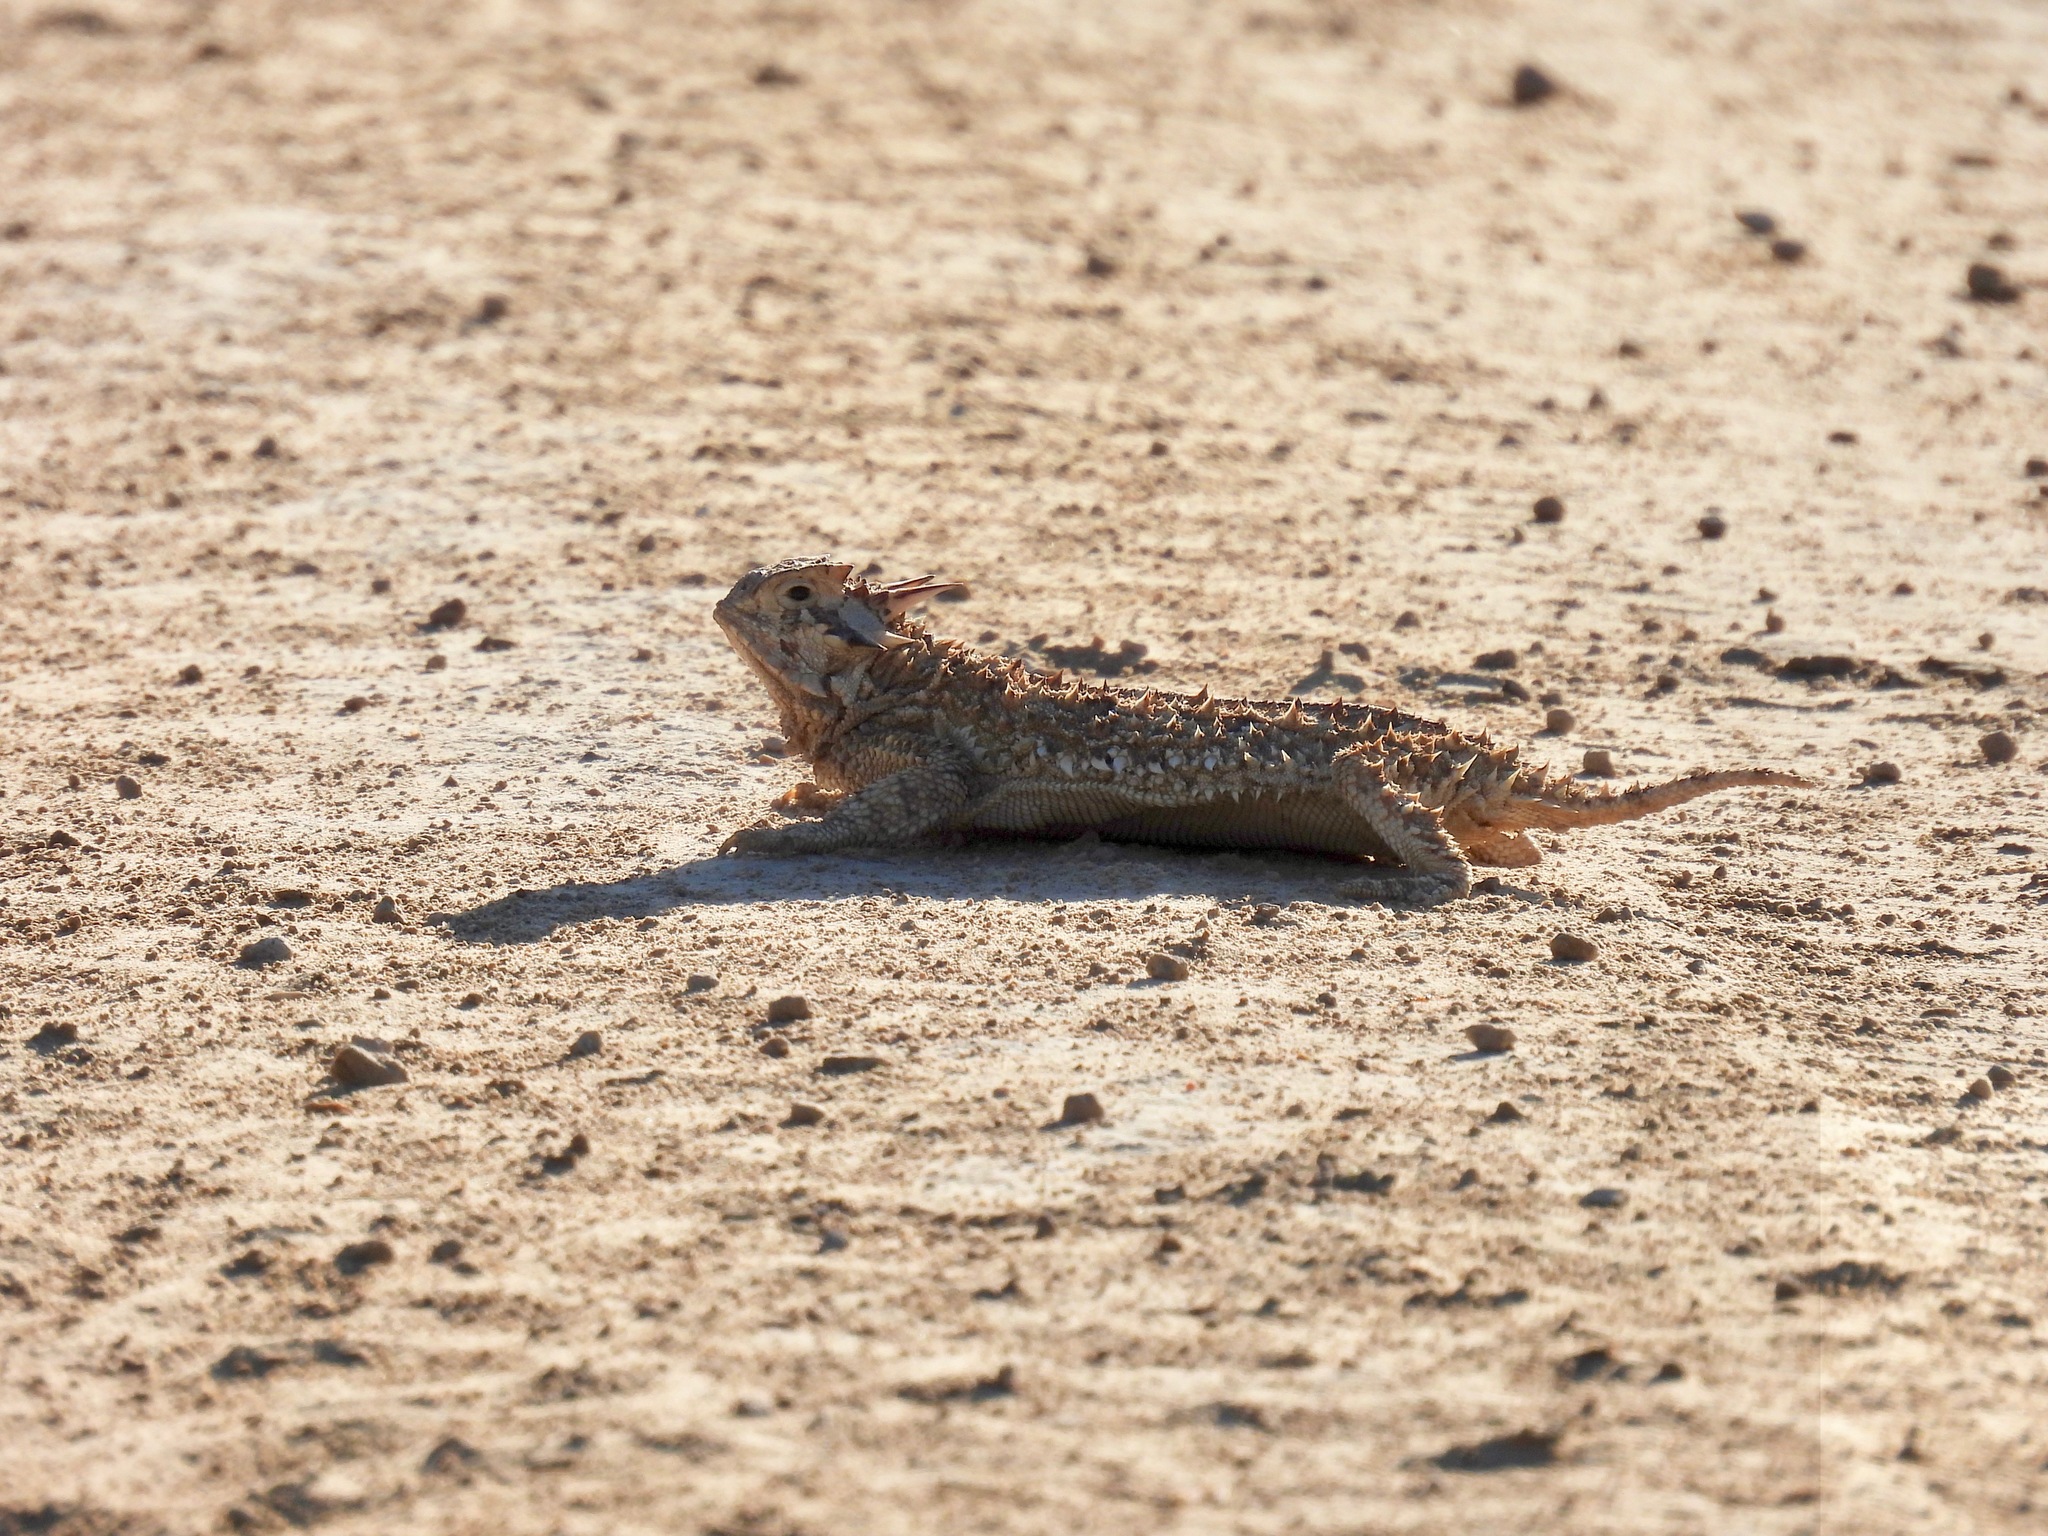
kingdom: Animalia
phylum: Chordata
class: Squamata
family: Phrynosomatidae
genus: Phrynosoma
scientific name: Phrynosoma cornutum
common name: Texas horned lizard
